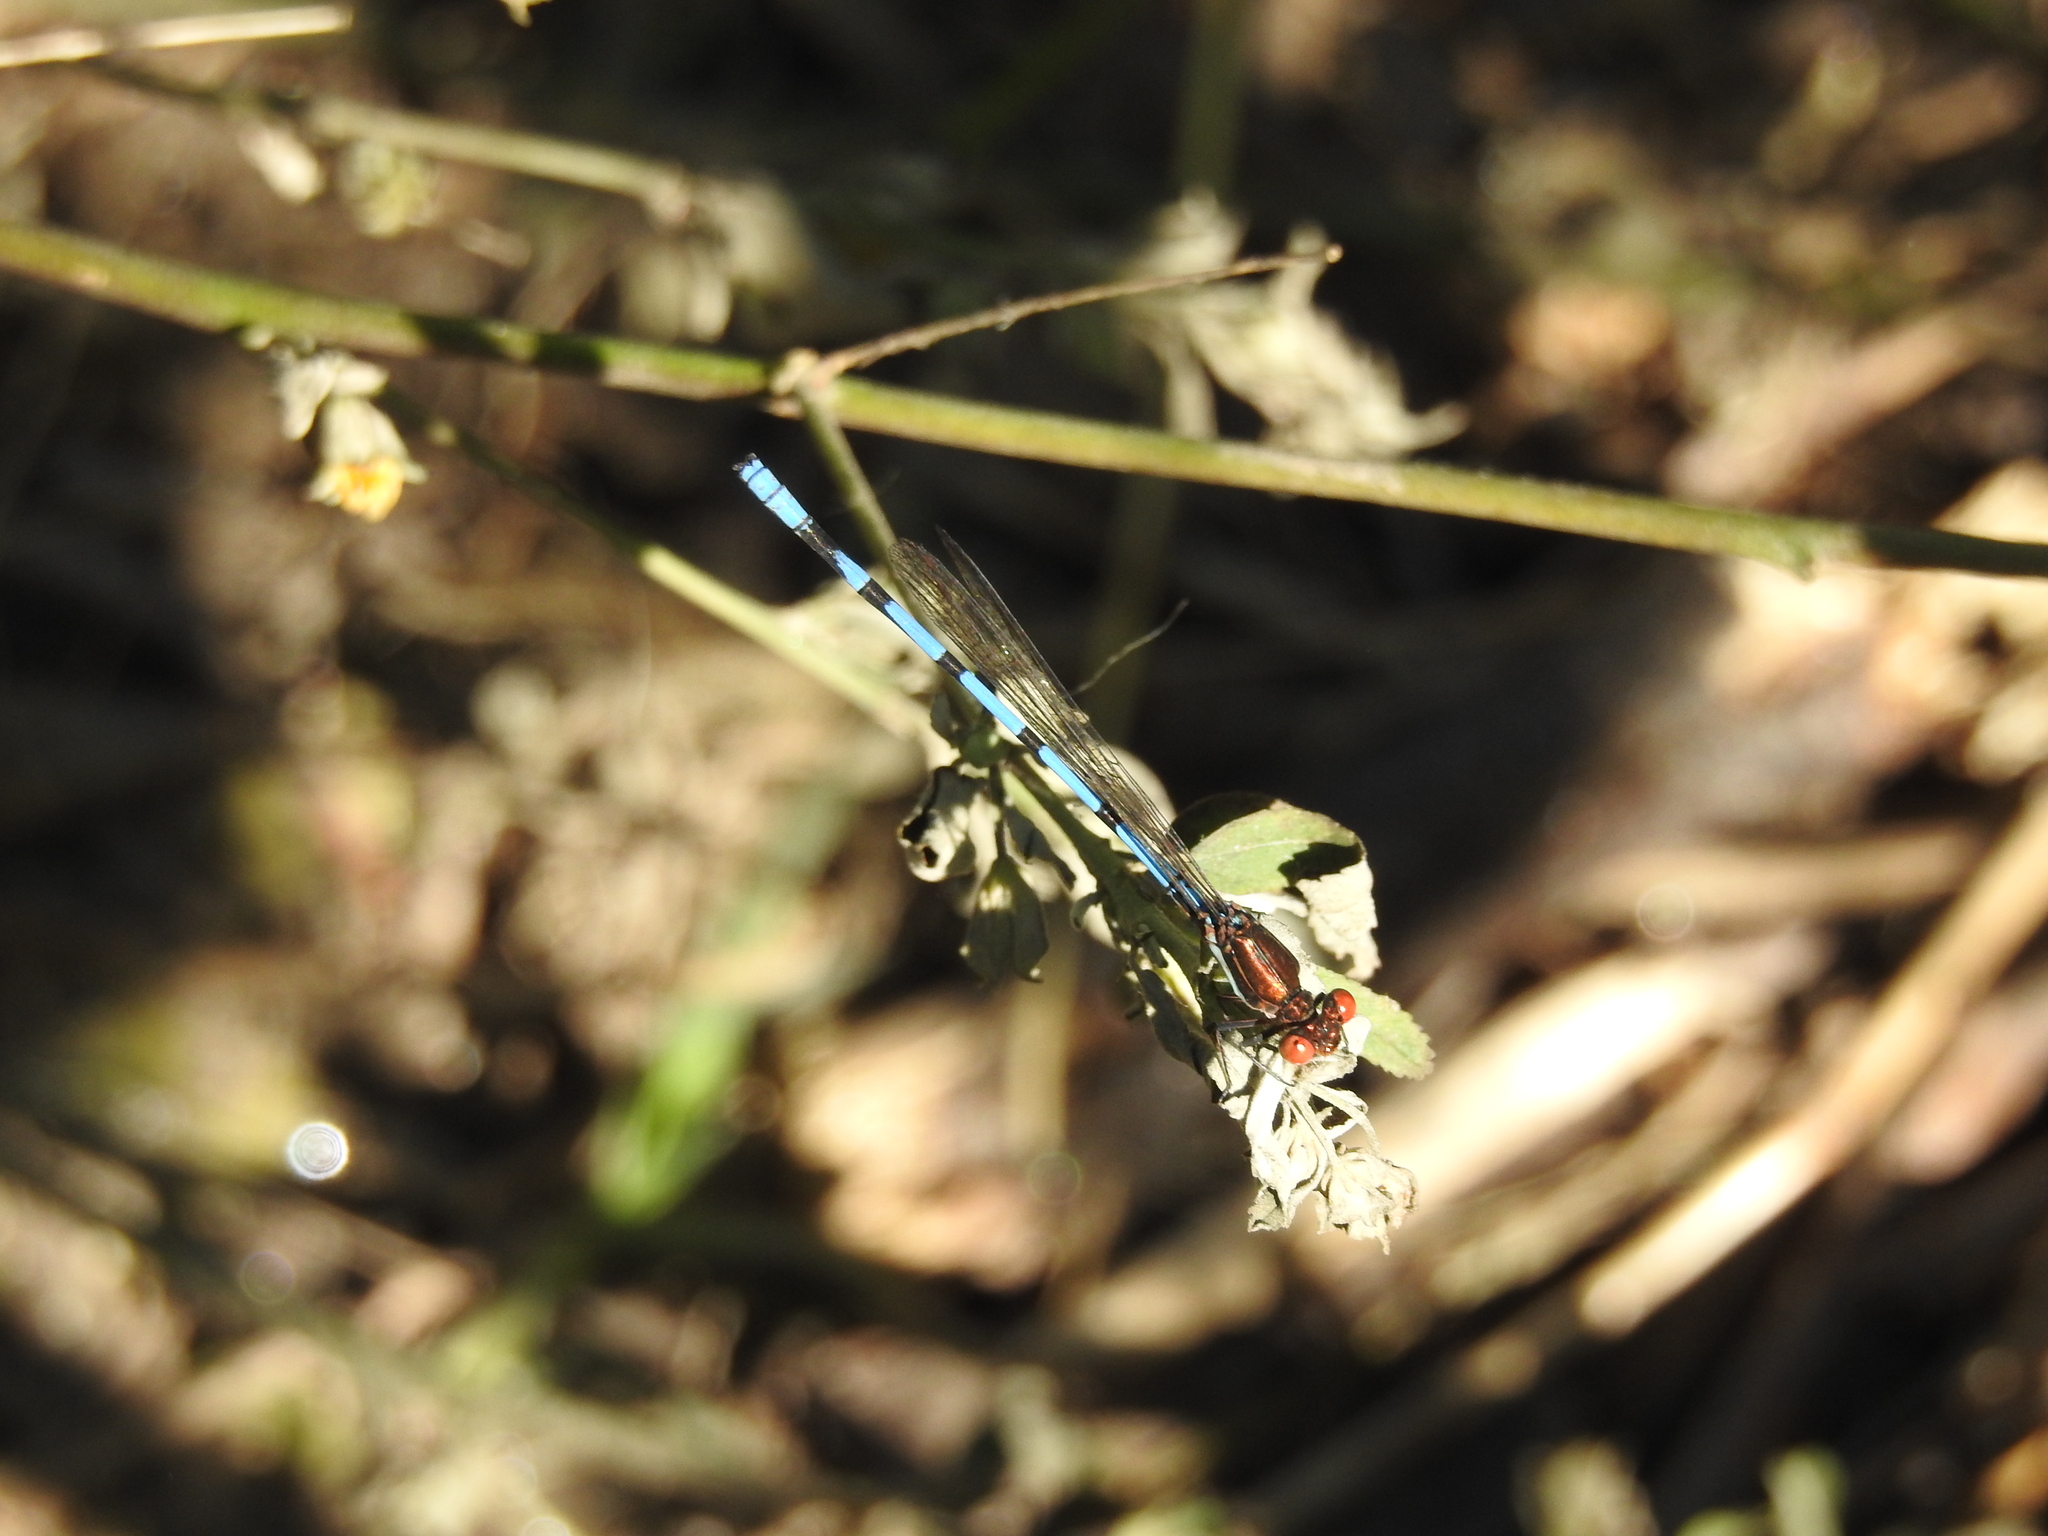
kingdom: Animalia
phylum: Arthropoda
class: Insecta
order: Odonata
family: Coenagrionidae
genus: Argia
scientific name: Argia joergenseni
